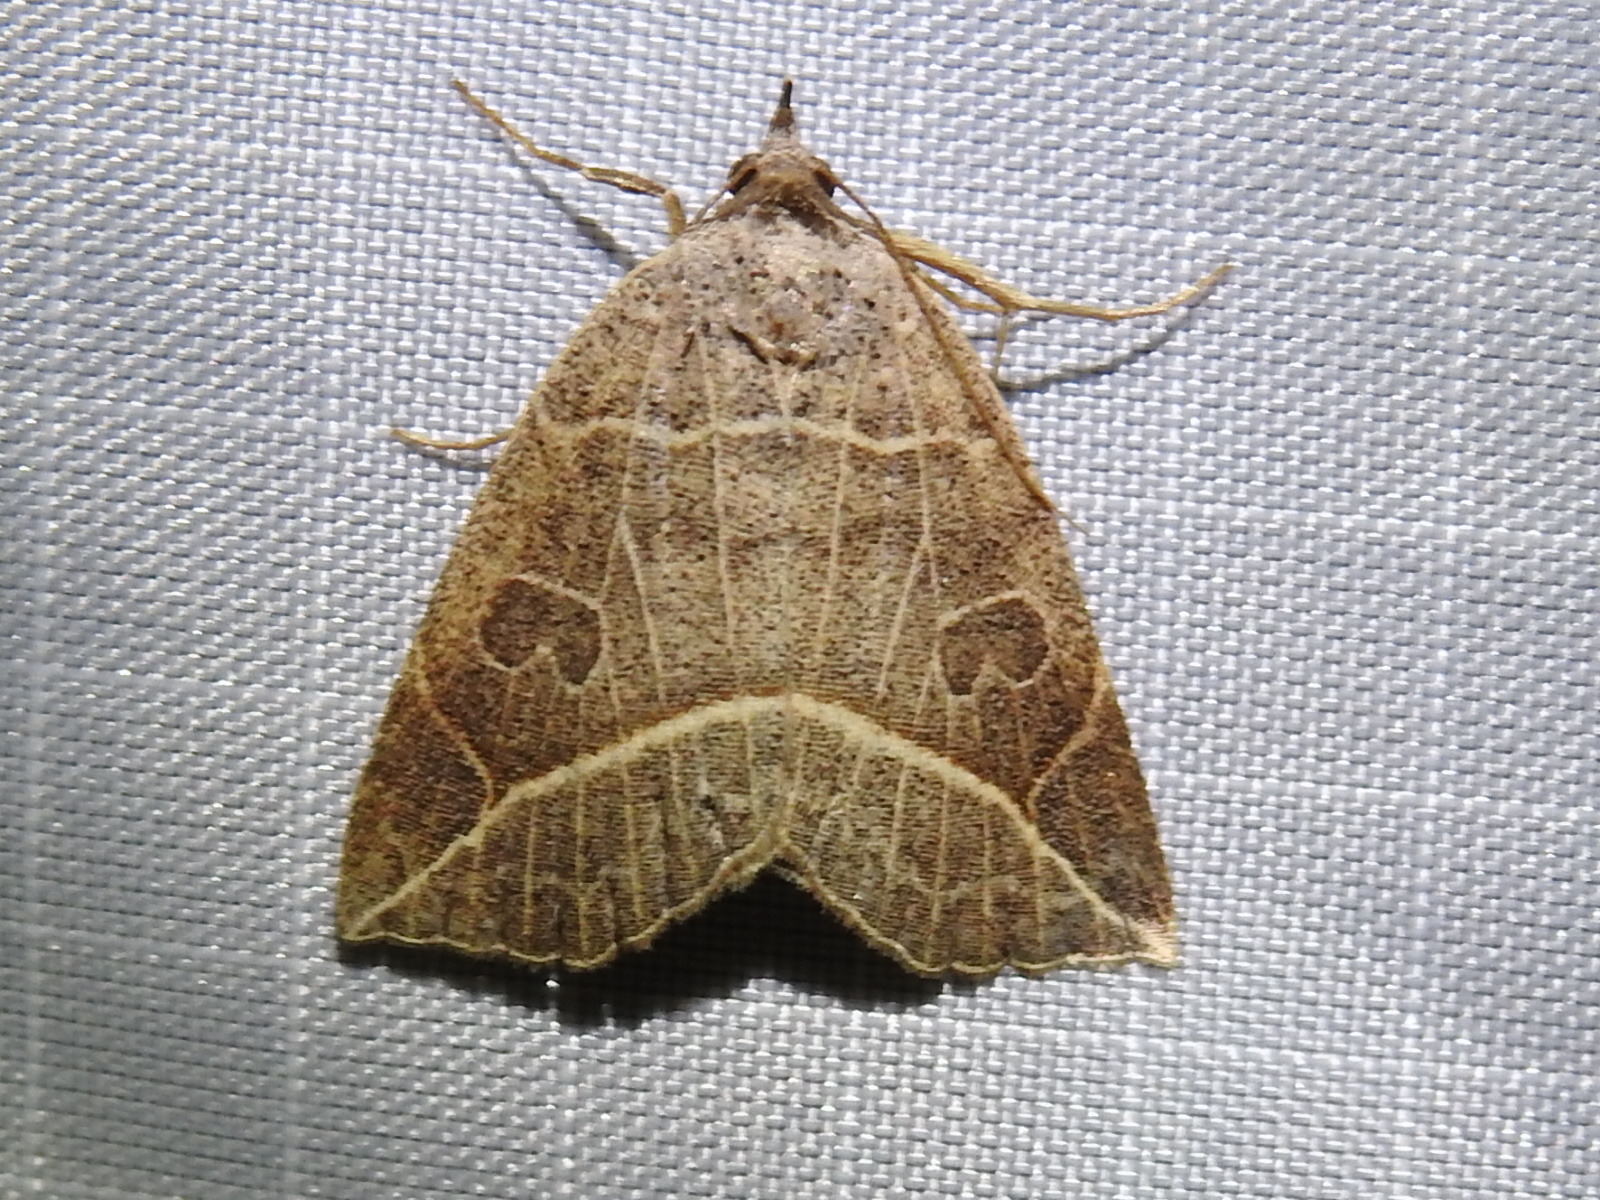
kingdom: Animalia
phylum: Arthropoda
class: Insecta
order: Lepidoptera
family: Erebidae
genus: Isogona
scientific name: Isogona tenuis
